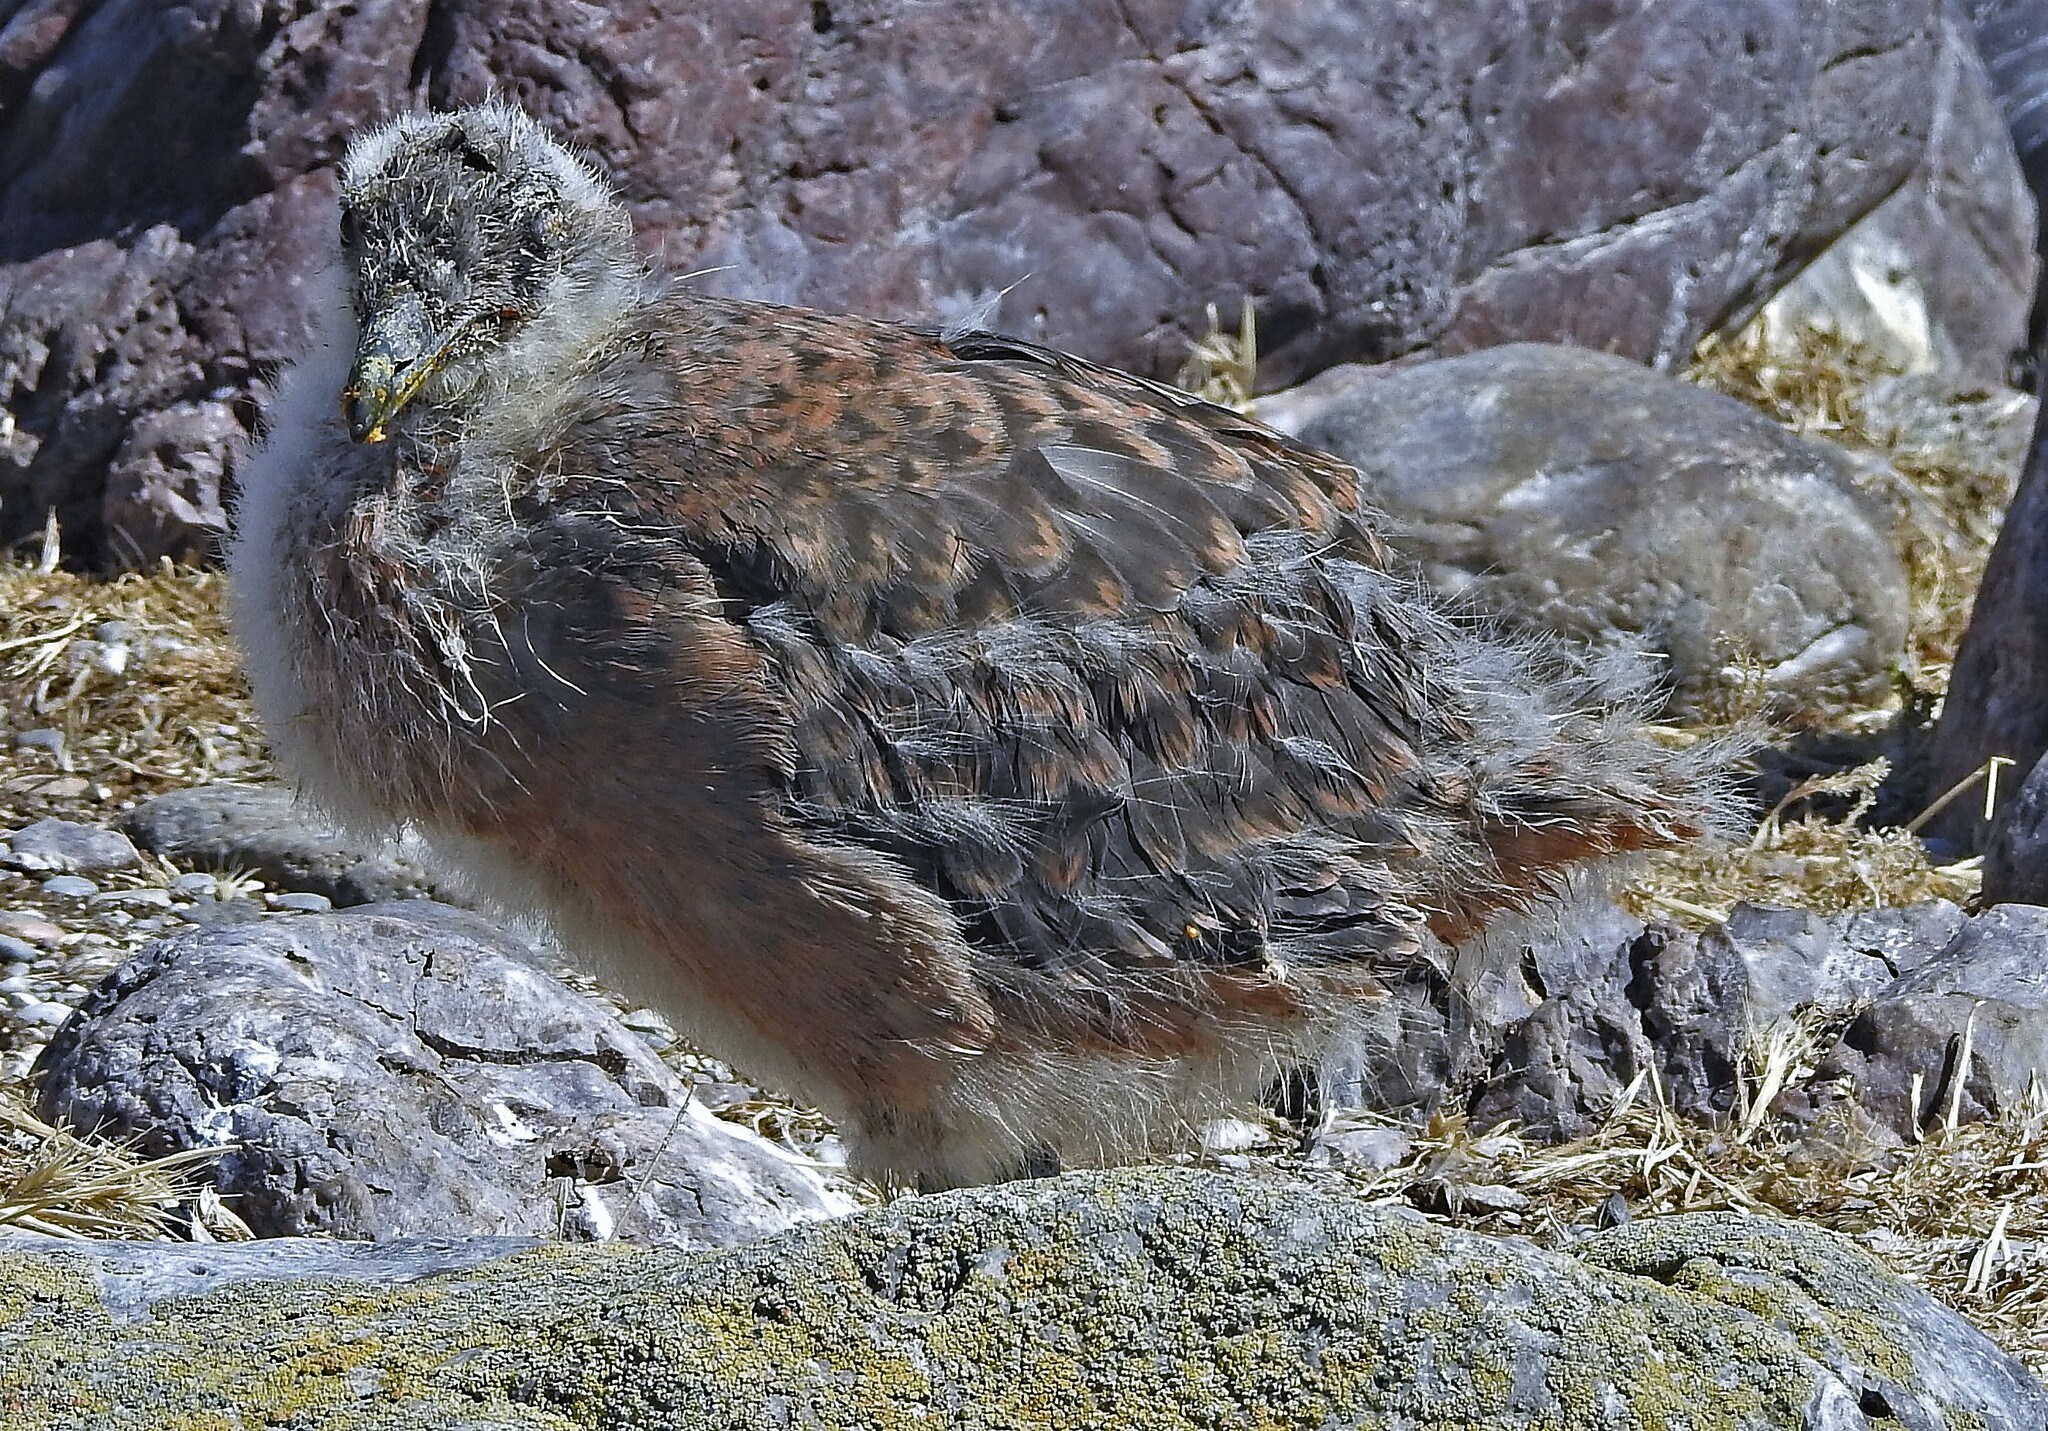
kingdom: Animalia
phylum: Chordata
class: Aves
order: Charadriiformes
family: Stercorariidae
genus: Stercorarius
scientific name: Stercorarius chilensis
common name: Chilean skua
